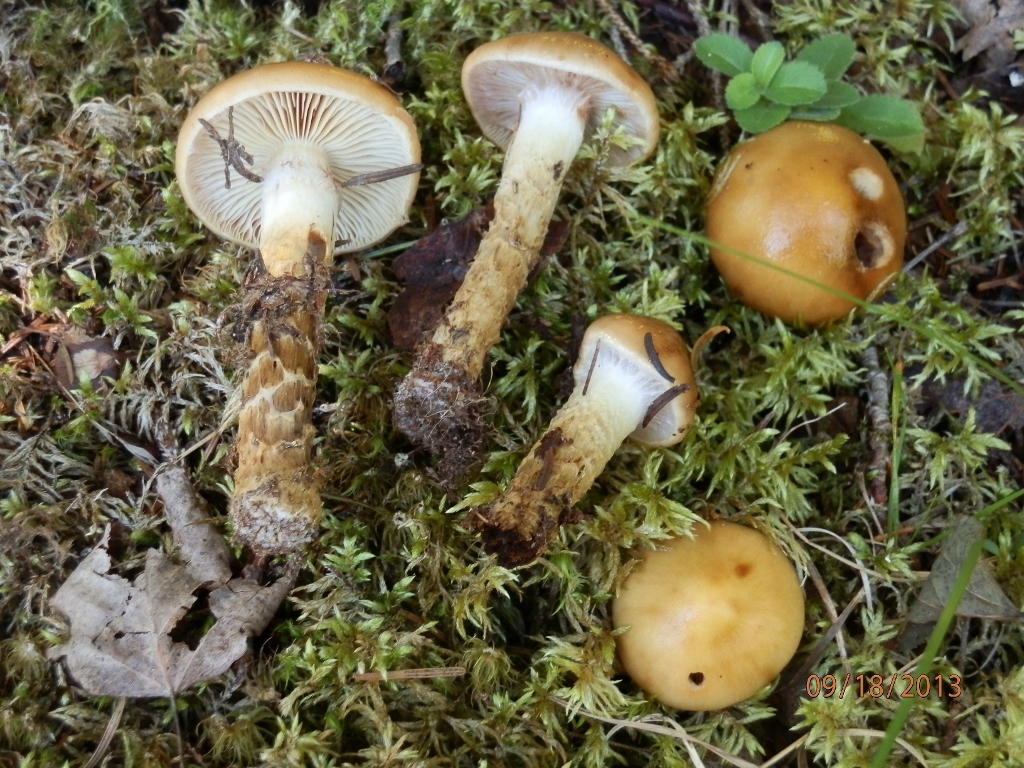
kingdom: Fungi
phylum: Basidiomycota
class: Agaricomycetes
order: Agaricales
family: Cortinariaceae
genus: Cortinarius
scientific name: Cortinarius trivialis
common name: Girdled webcap
